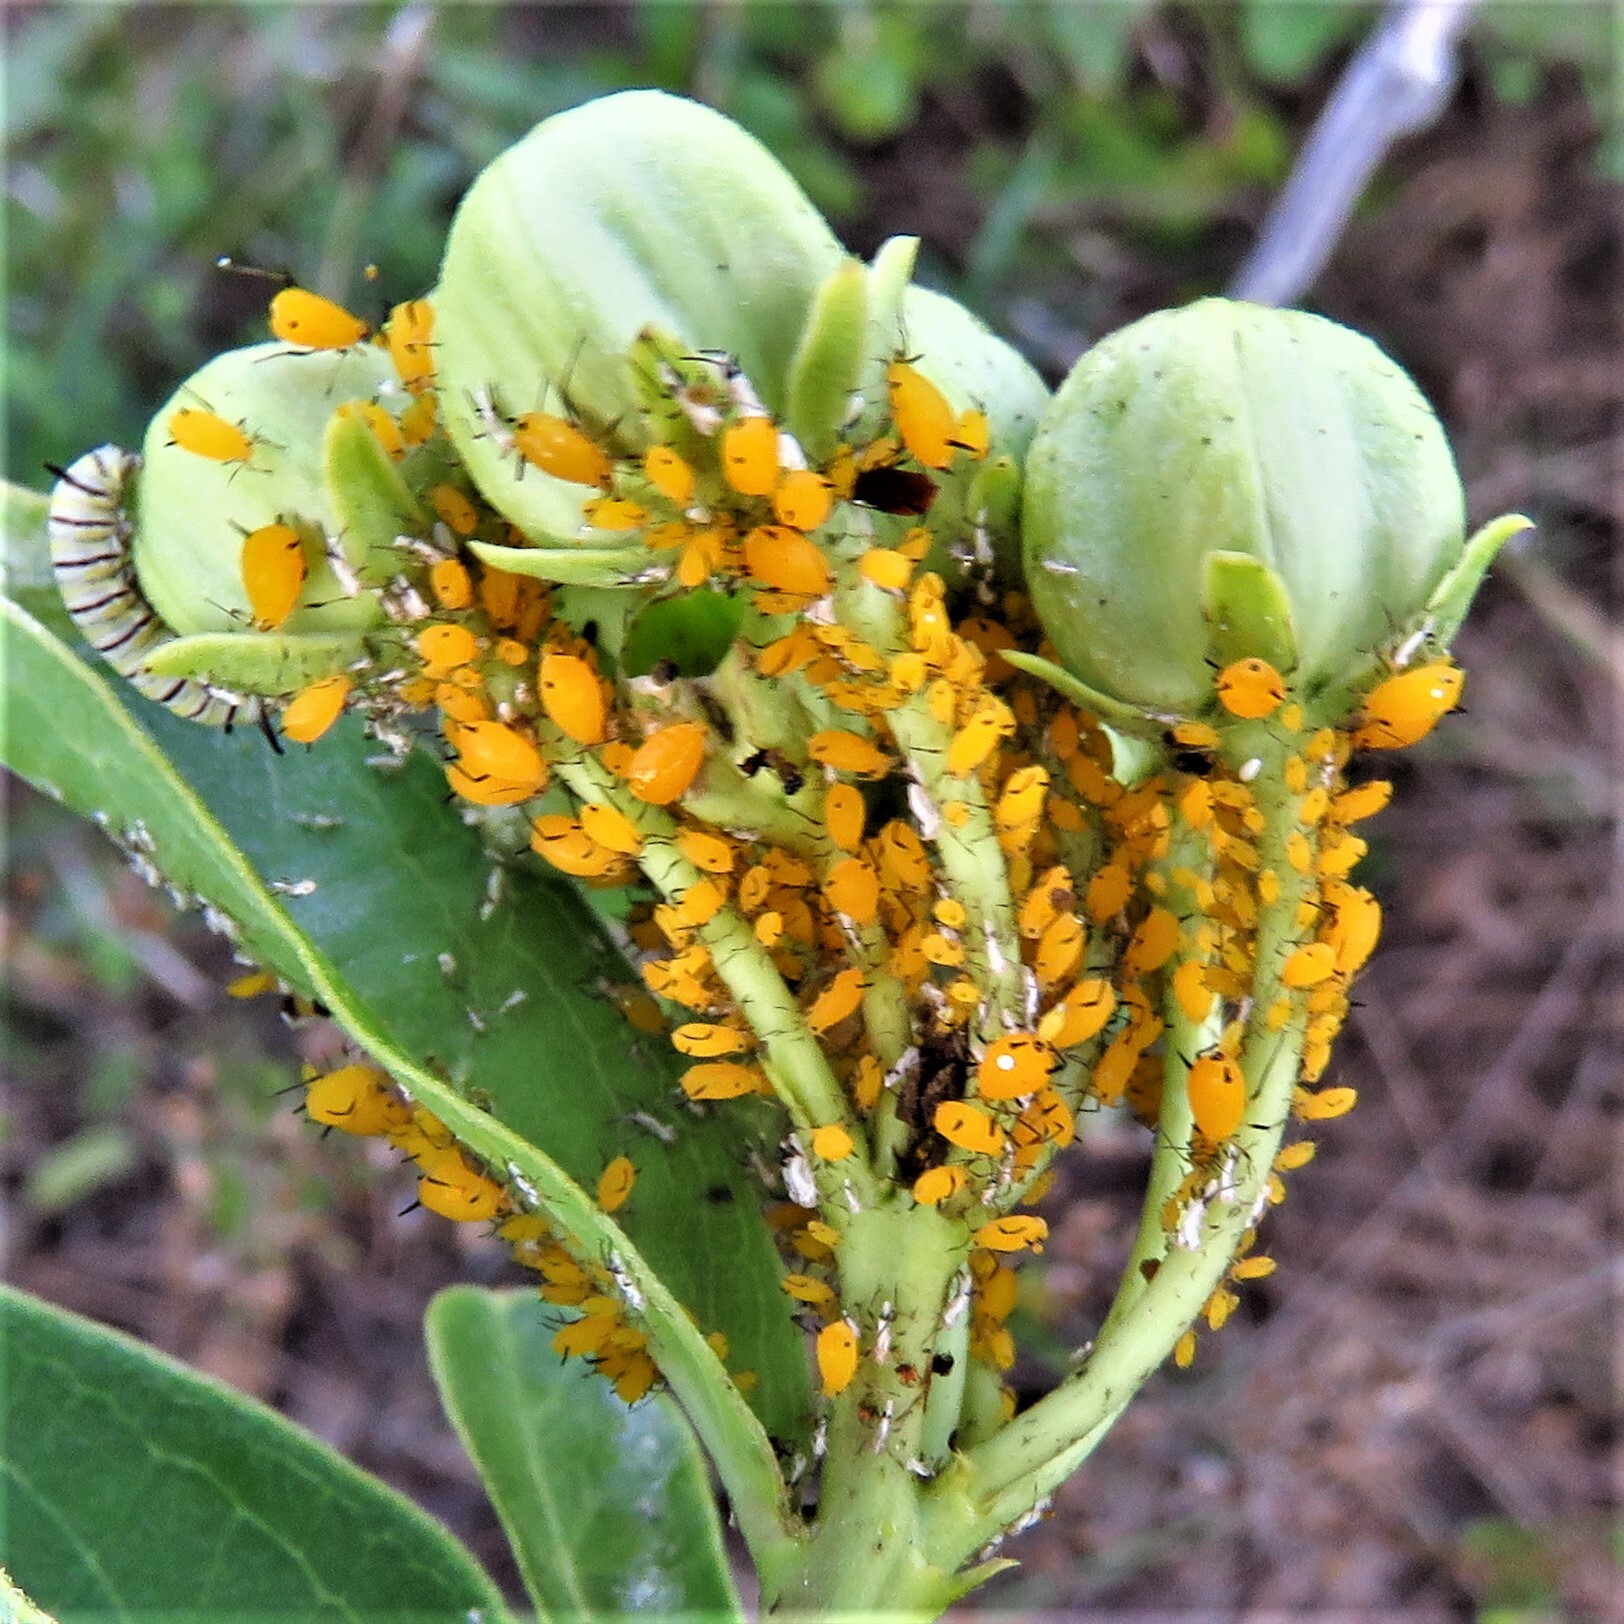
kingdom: Animalia
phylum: Arthropoda
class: Insecta
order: Hemiptera
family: Aphididae
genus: Aphis
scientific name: Aphis nerii
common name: Oleander aphid
